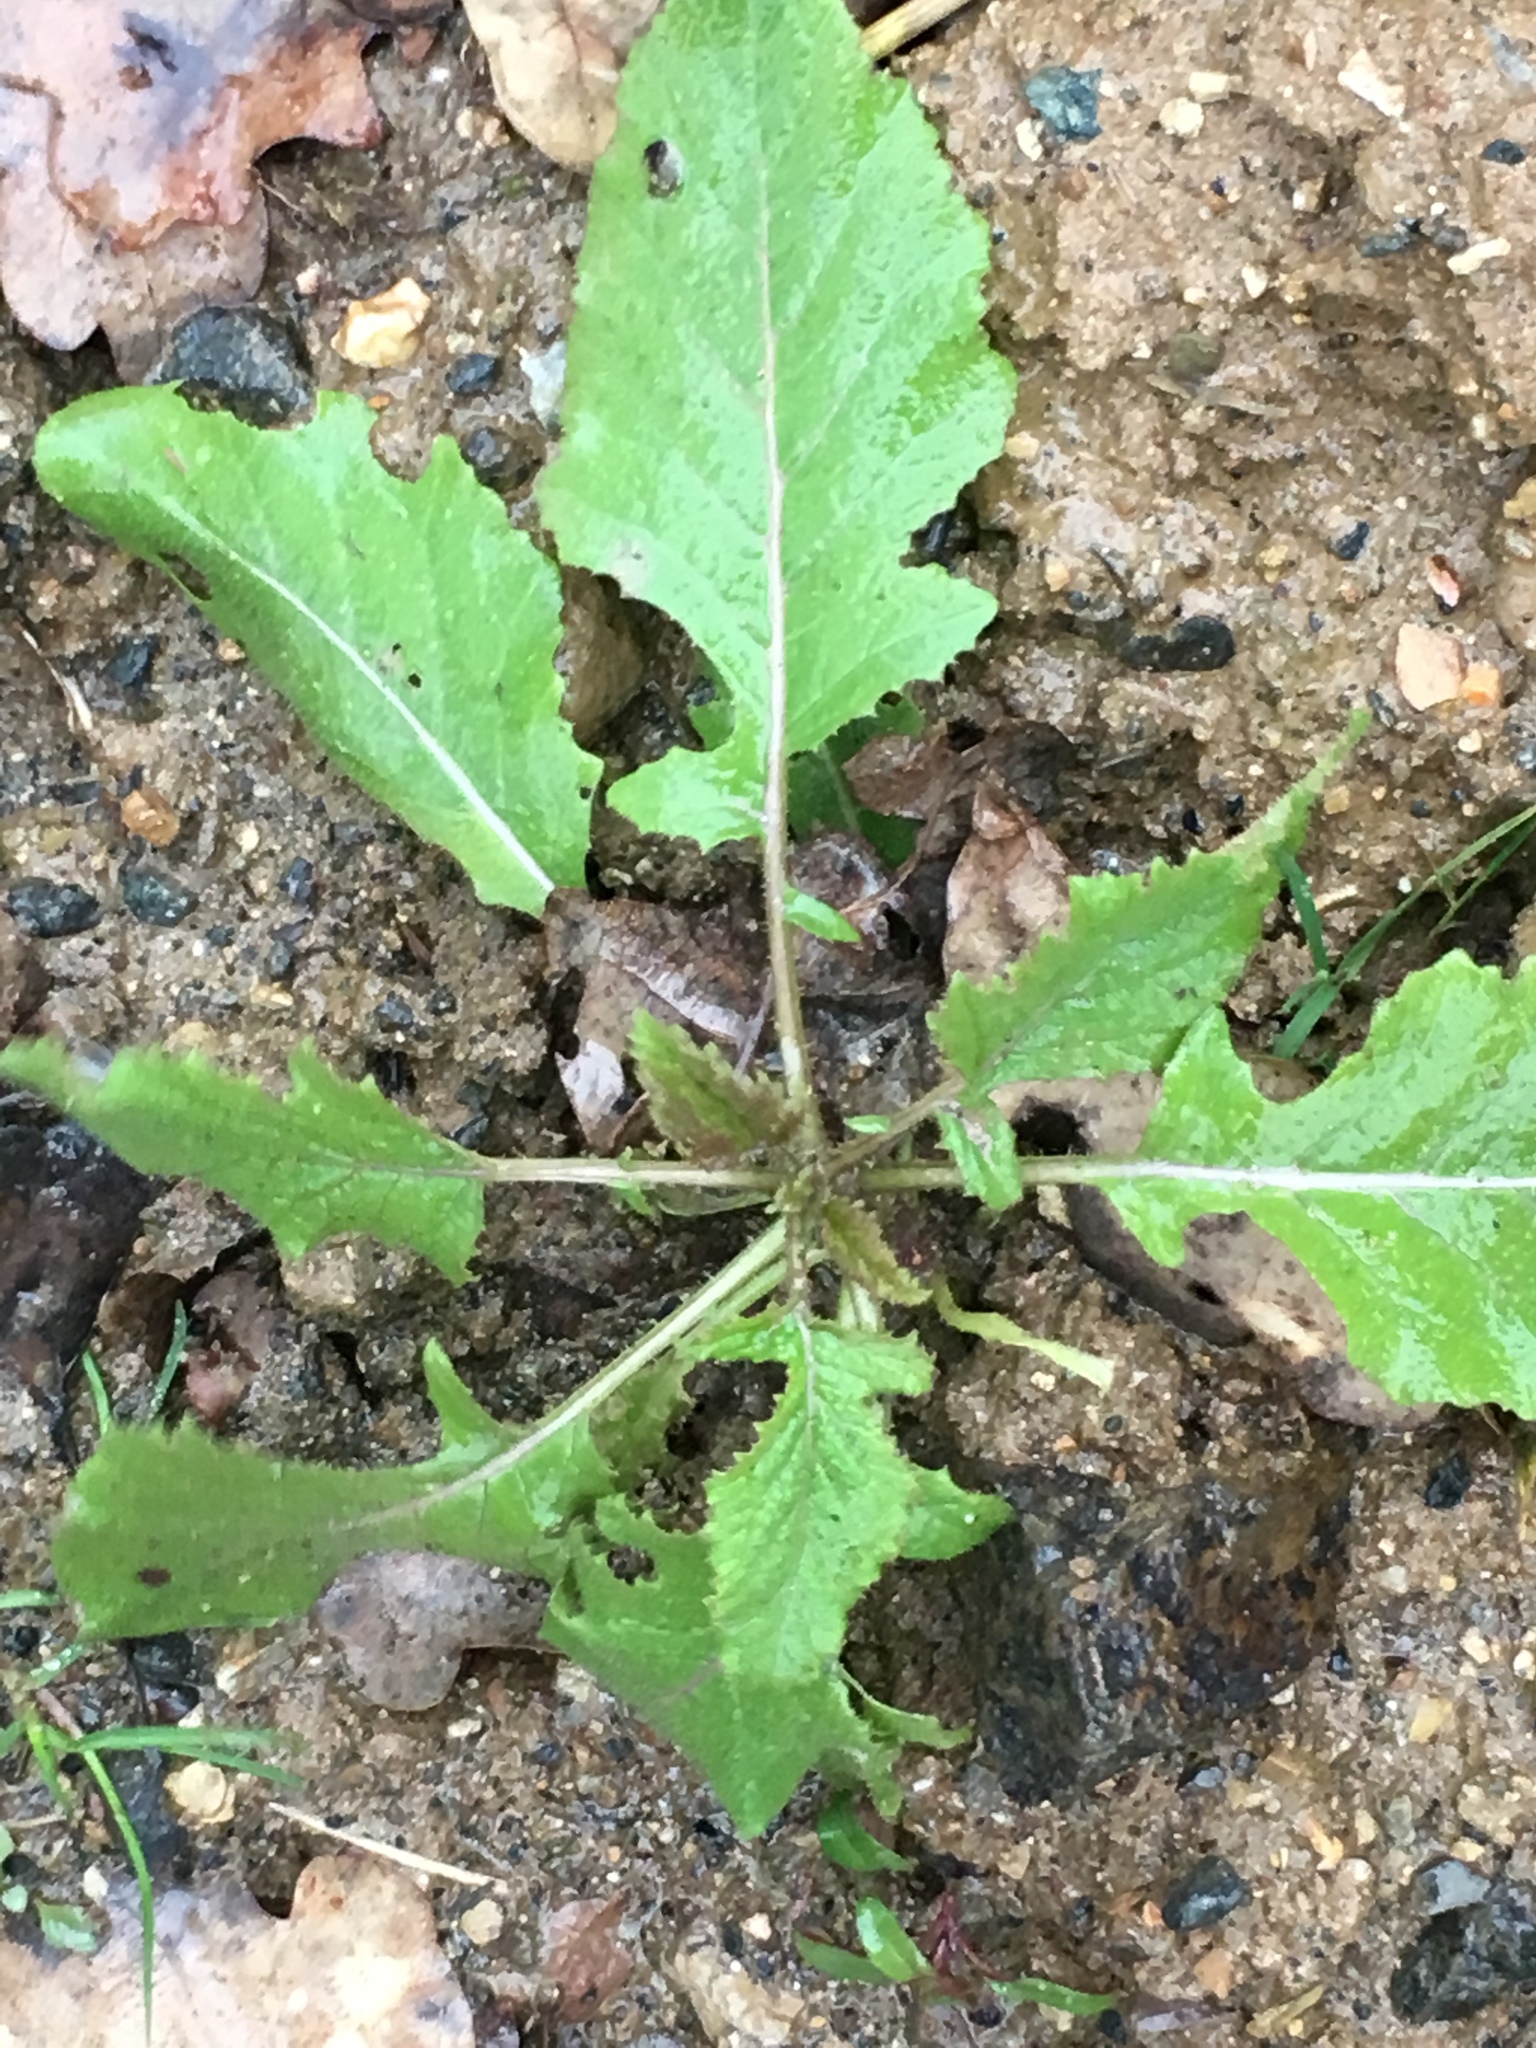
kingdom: Plantae
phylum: Tracheophyta
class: Magnoliopsida
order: Brassicales
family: Brassicaceae
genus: Sinapis
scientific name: Sinapis arvensis
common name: Charlock
